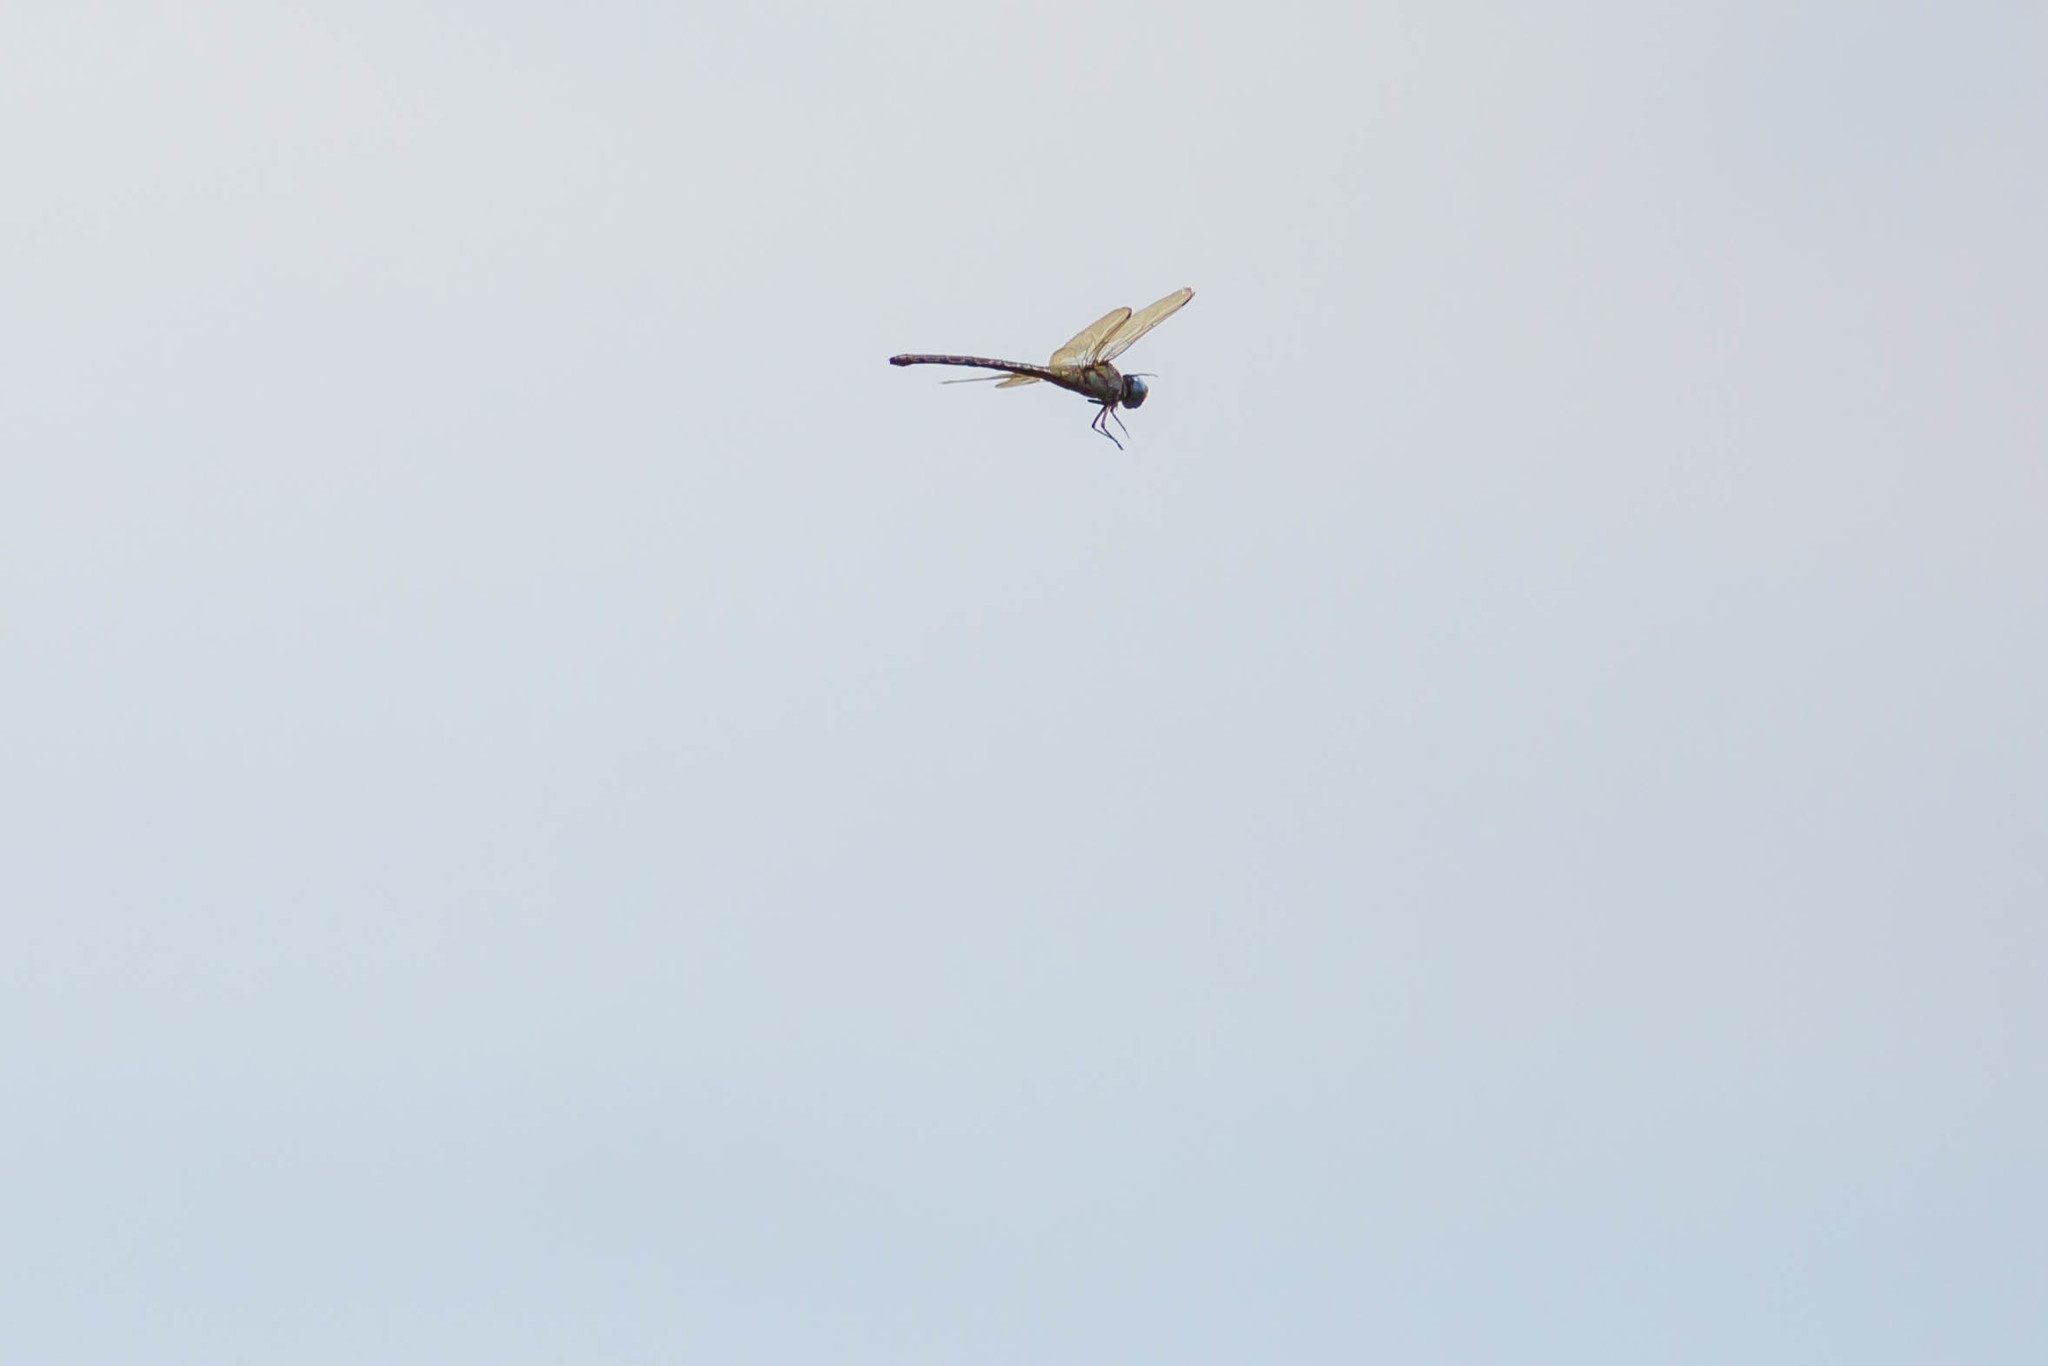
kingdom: Animalia
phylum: Arthropoda
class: Insecta
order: Odonata
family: Aeshnidae
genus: Coryphaeschna
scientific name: Coryphaeschna ingens
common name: Regal darner
